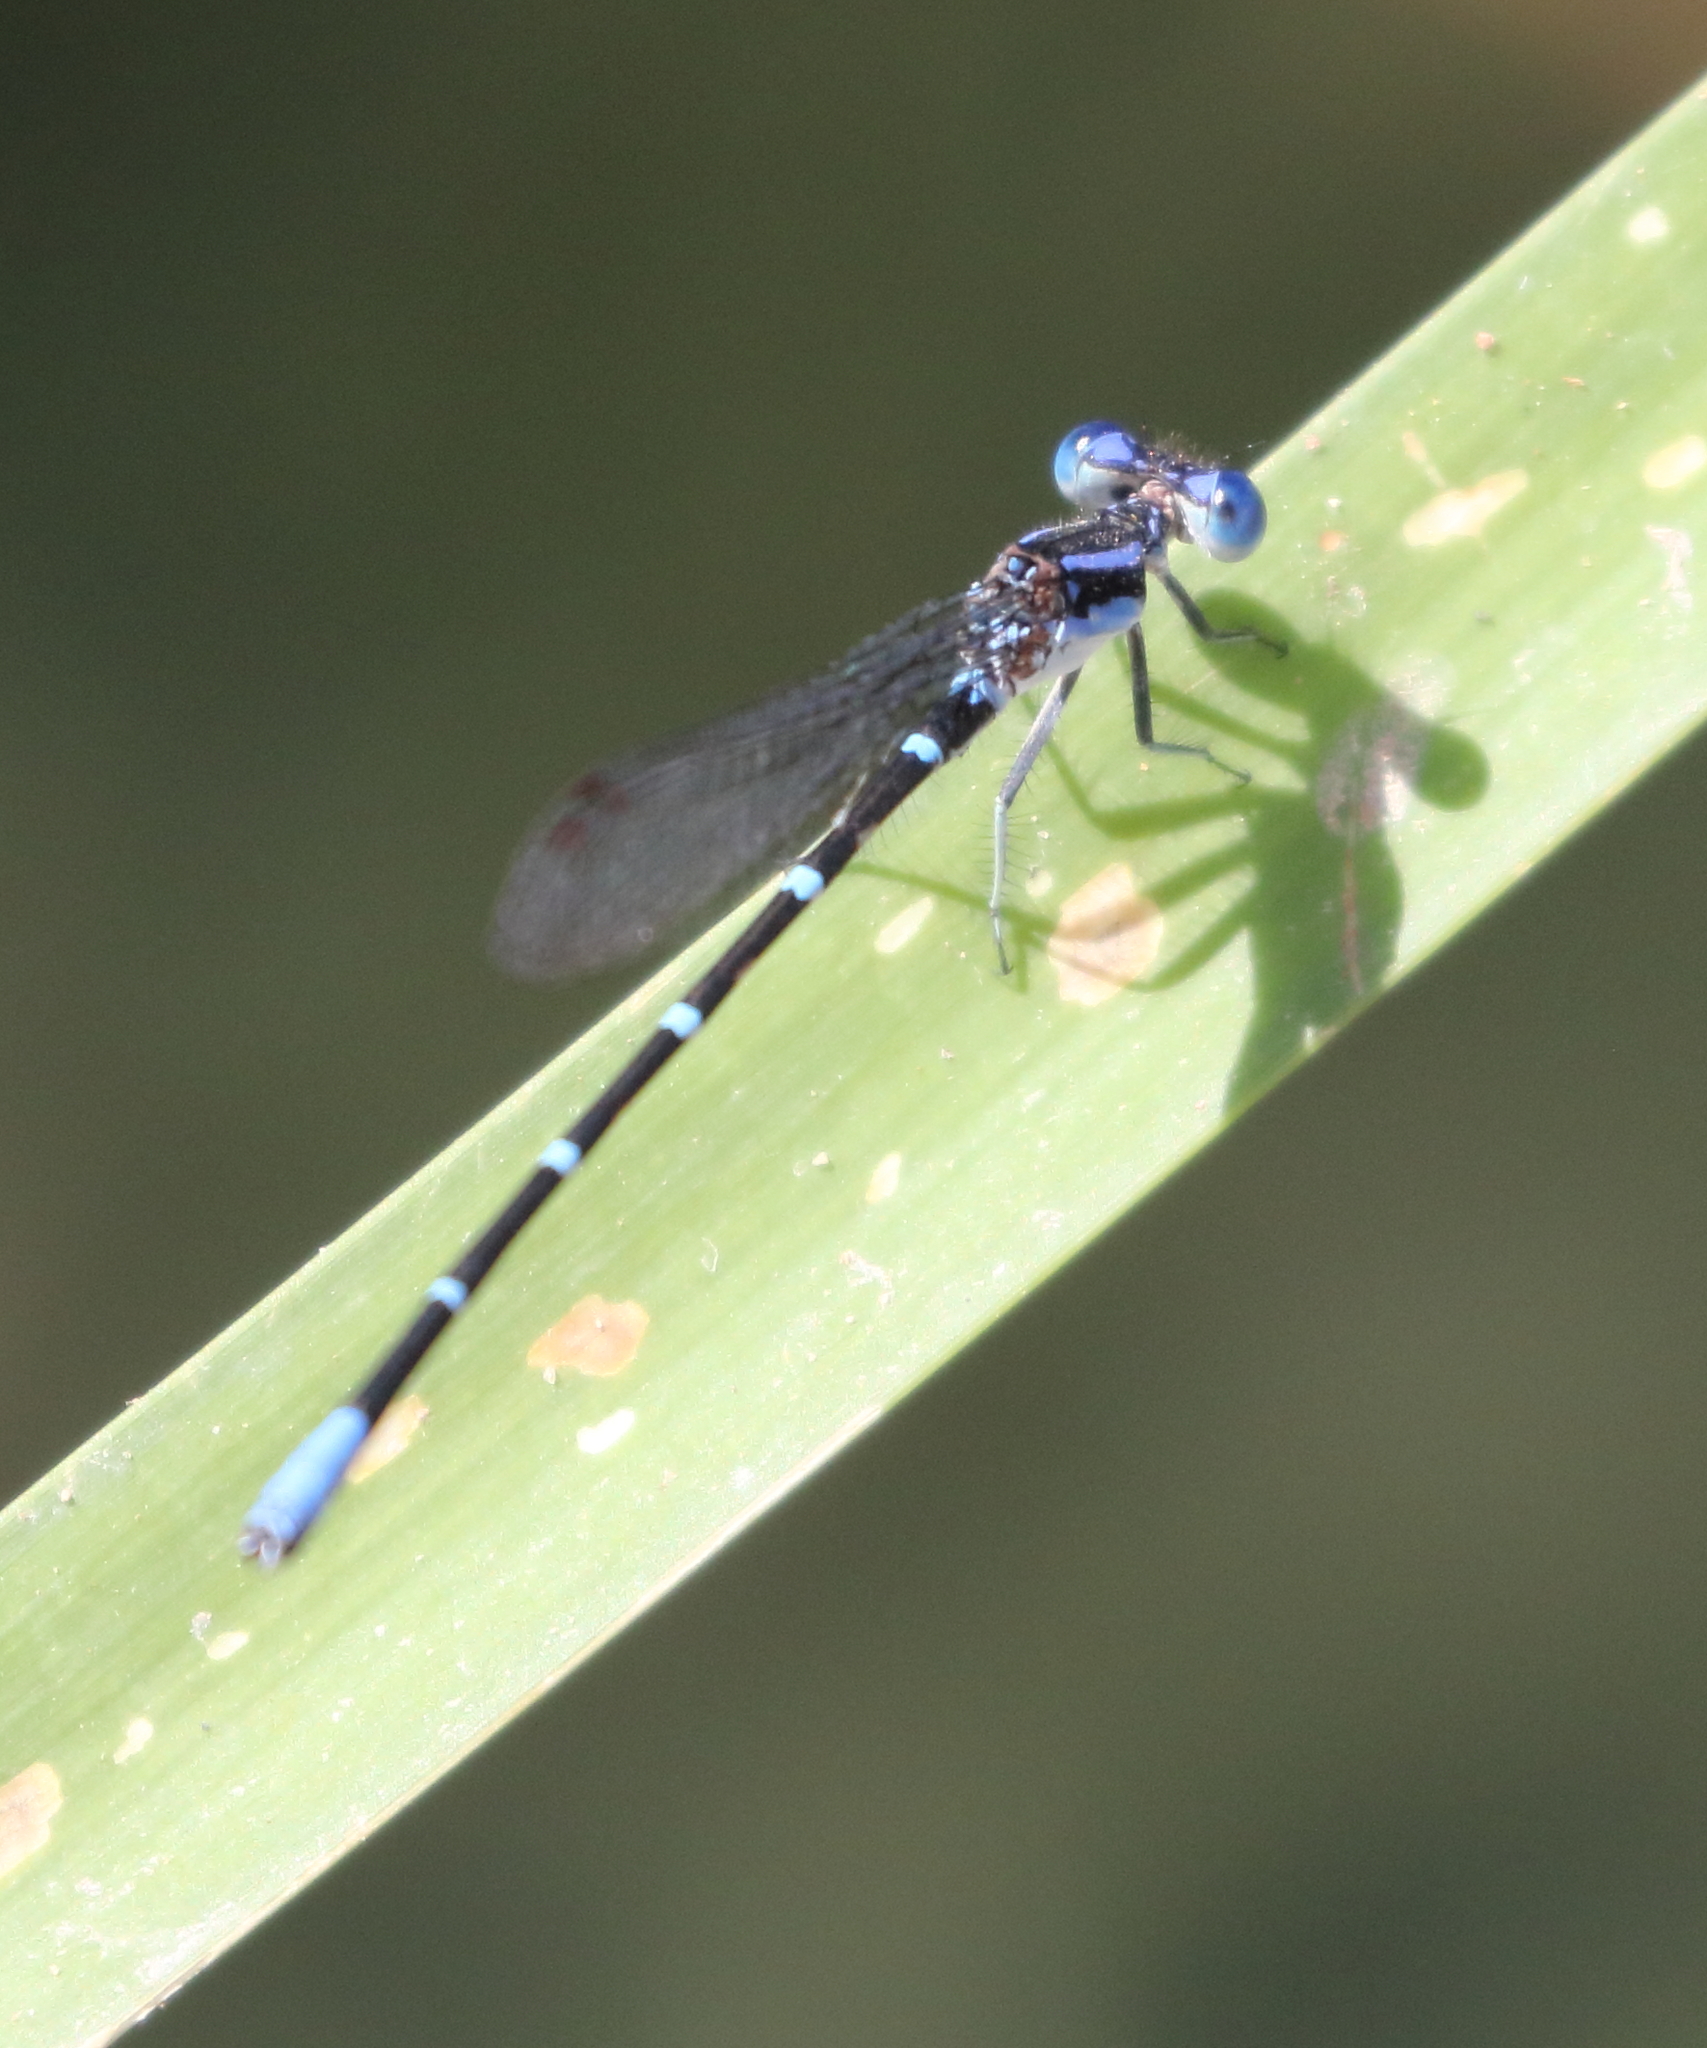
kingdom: Animalia
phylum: Arthropoda
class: Insecta
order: Odonata
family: Coenagrionidae
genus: Argia
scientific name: Argia sedula
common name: Blue-ringed dancer
